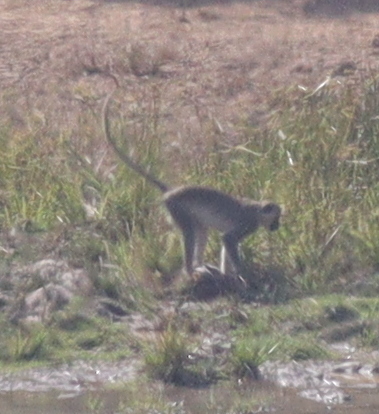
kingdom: Animalia
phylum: Chordata
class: Mammalia
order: Primates
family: Cercopithecidae
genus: Chlorocebus
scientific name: Chlorocebus sabaeus
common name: Green monkey
